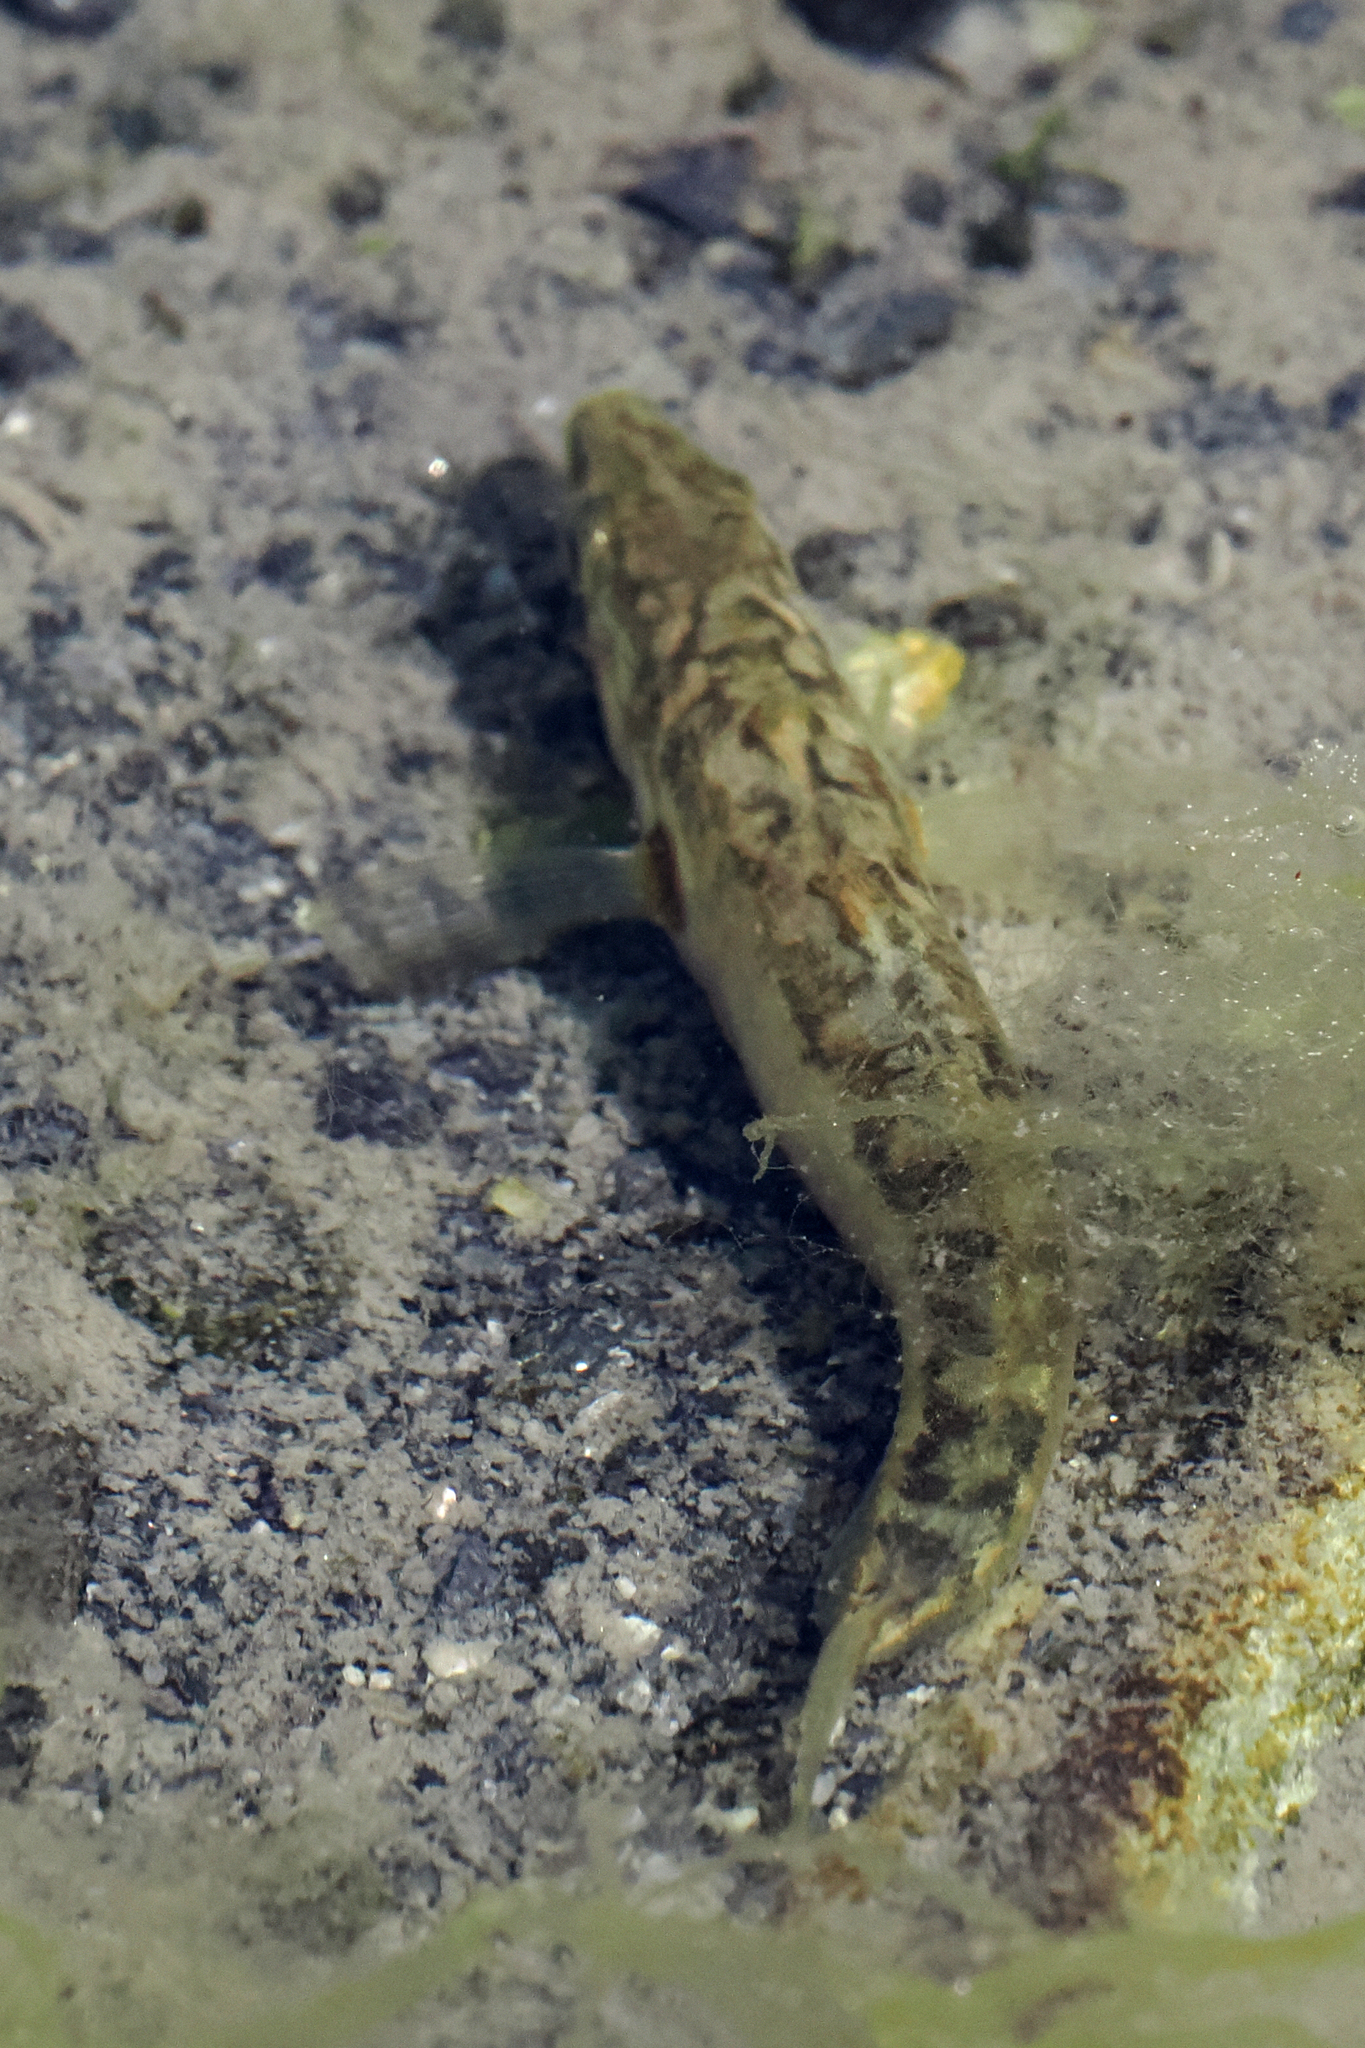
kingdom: Animalia
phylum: Chordata
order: Gasterosteiformes
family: Gasterosteidae
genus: Gasterosteus
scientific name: Gasterosteus aculeatus
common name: Three-spined stickleback
